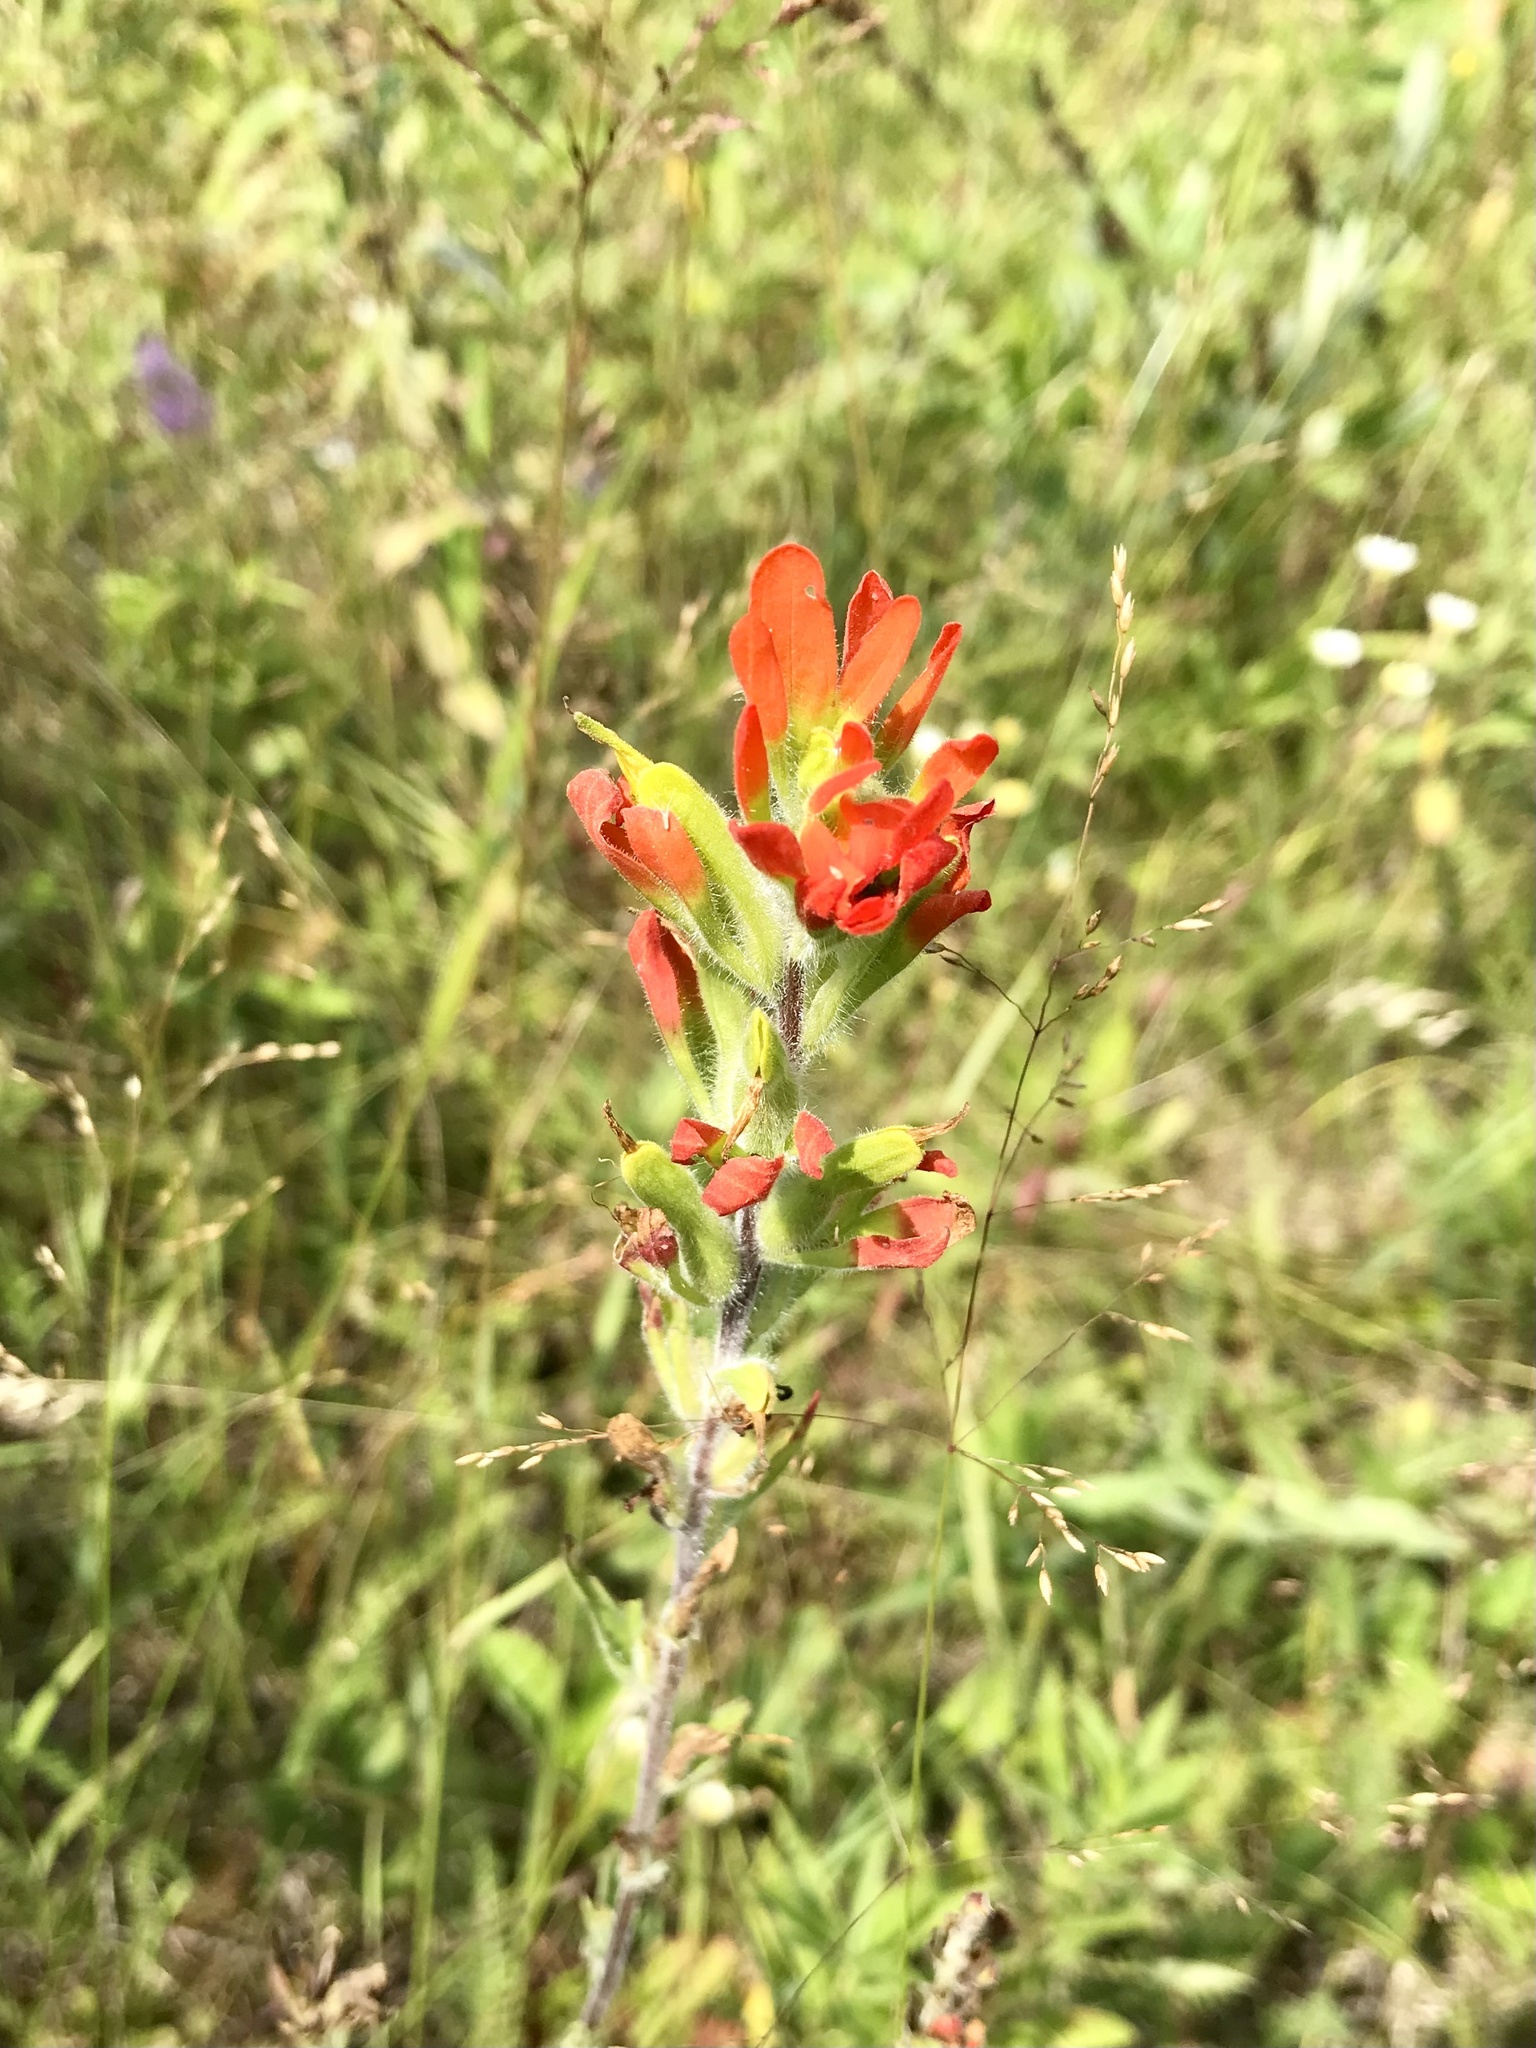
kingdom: Plantae
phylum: Tracheophyta
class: Magnoliopsida
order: Lamiales
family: Orobanchaceae
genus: Castilleja
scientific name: Castilleja coccinea
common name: Scarlet paintbrush
